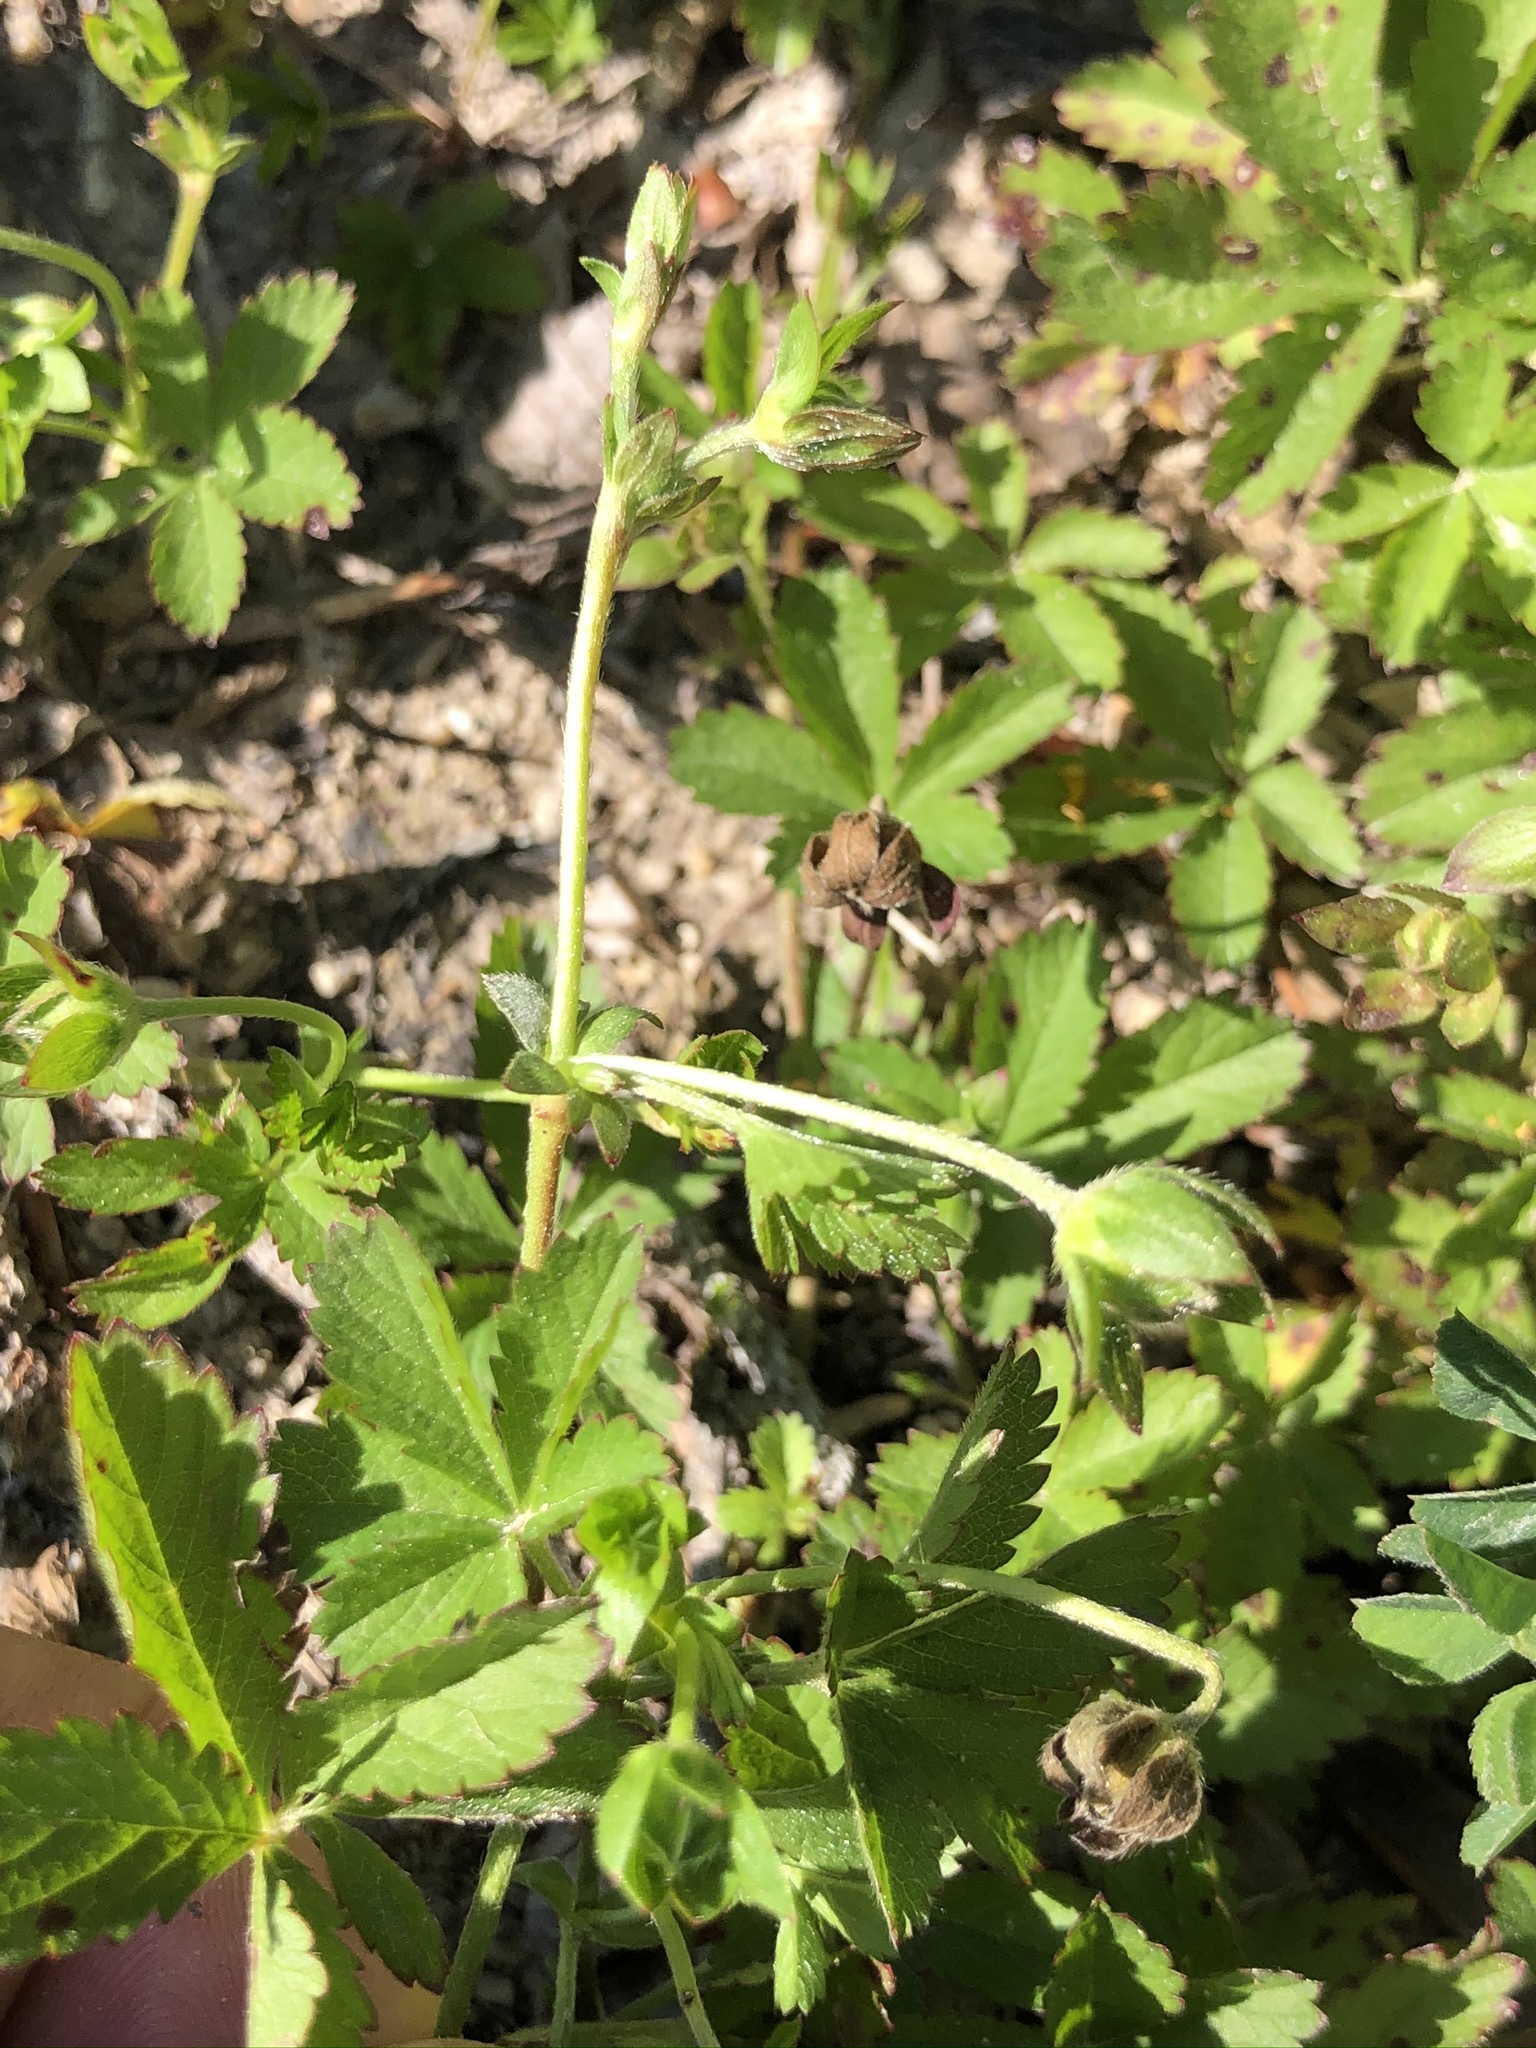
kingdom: Plantae
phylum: Tracheophyta
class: Magnoliopsida
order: Rosales
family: Rosaceae
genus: Potentilla
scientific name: Potentilla reptans
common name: Creeping cinquefoil
